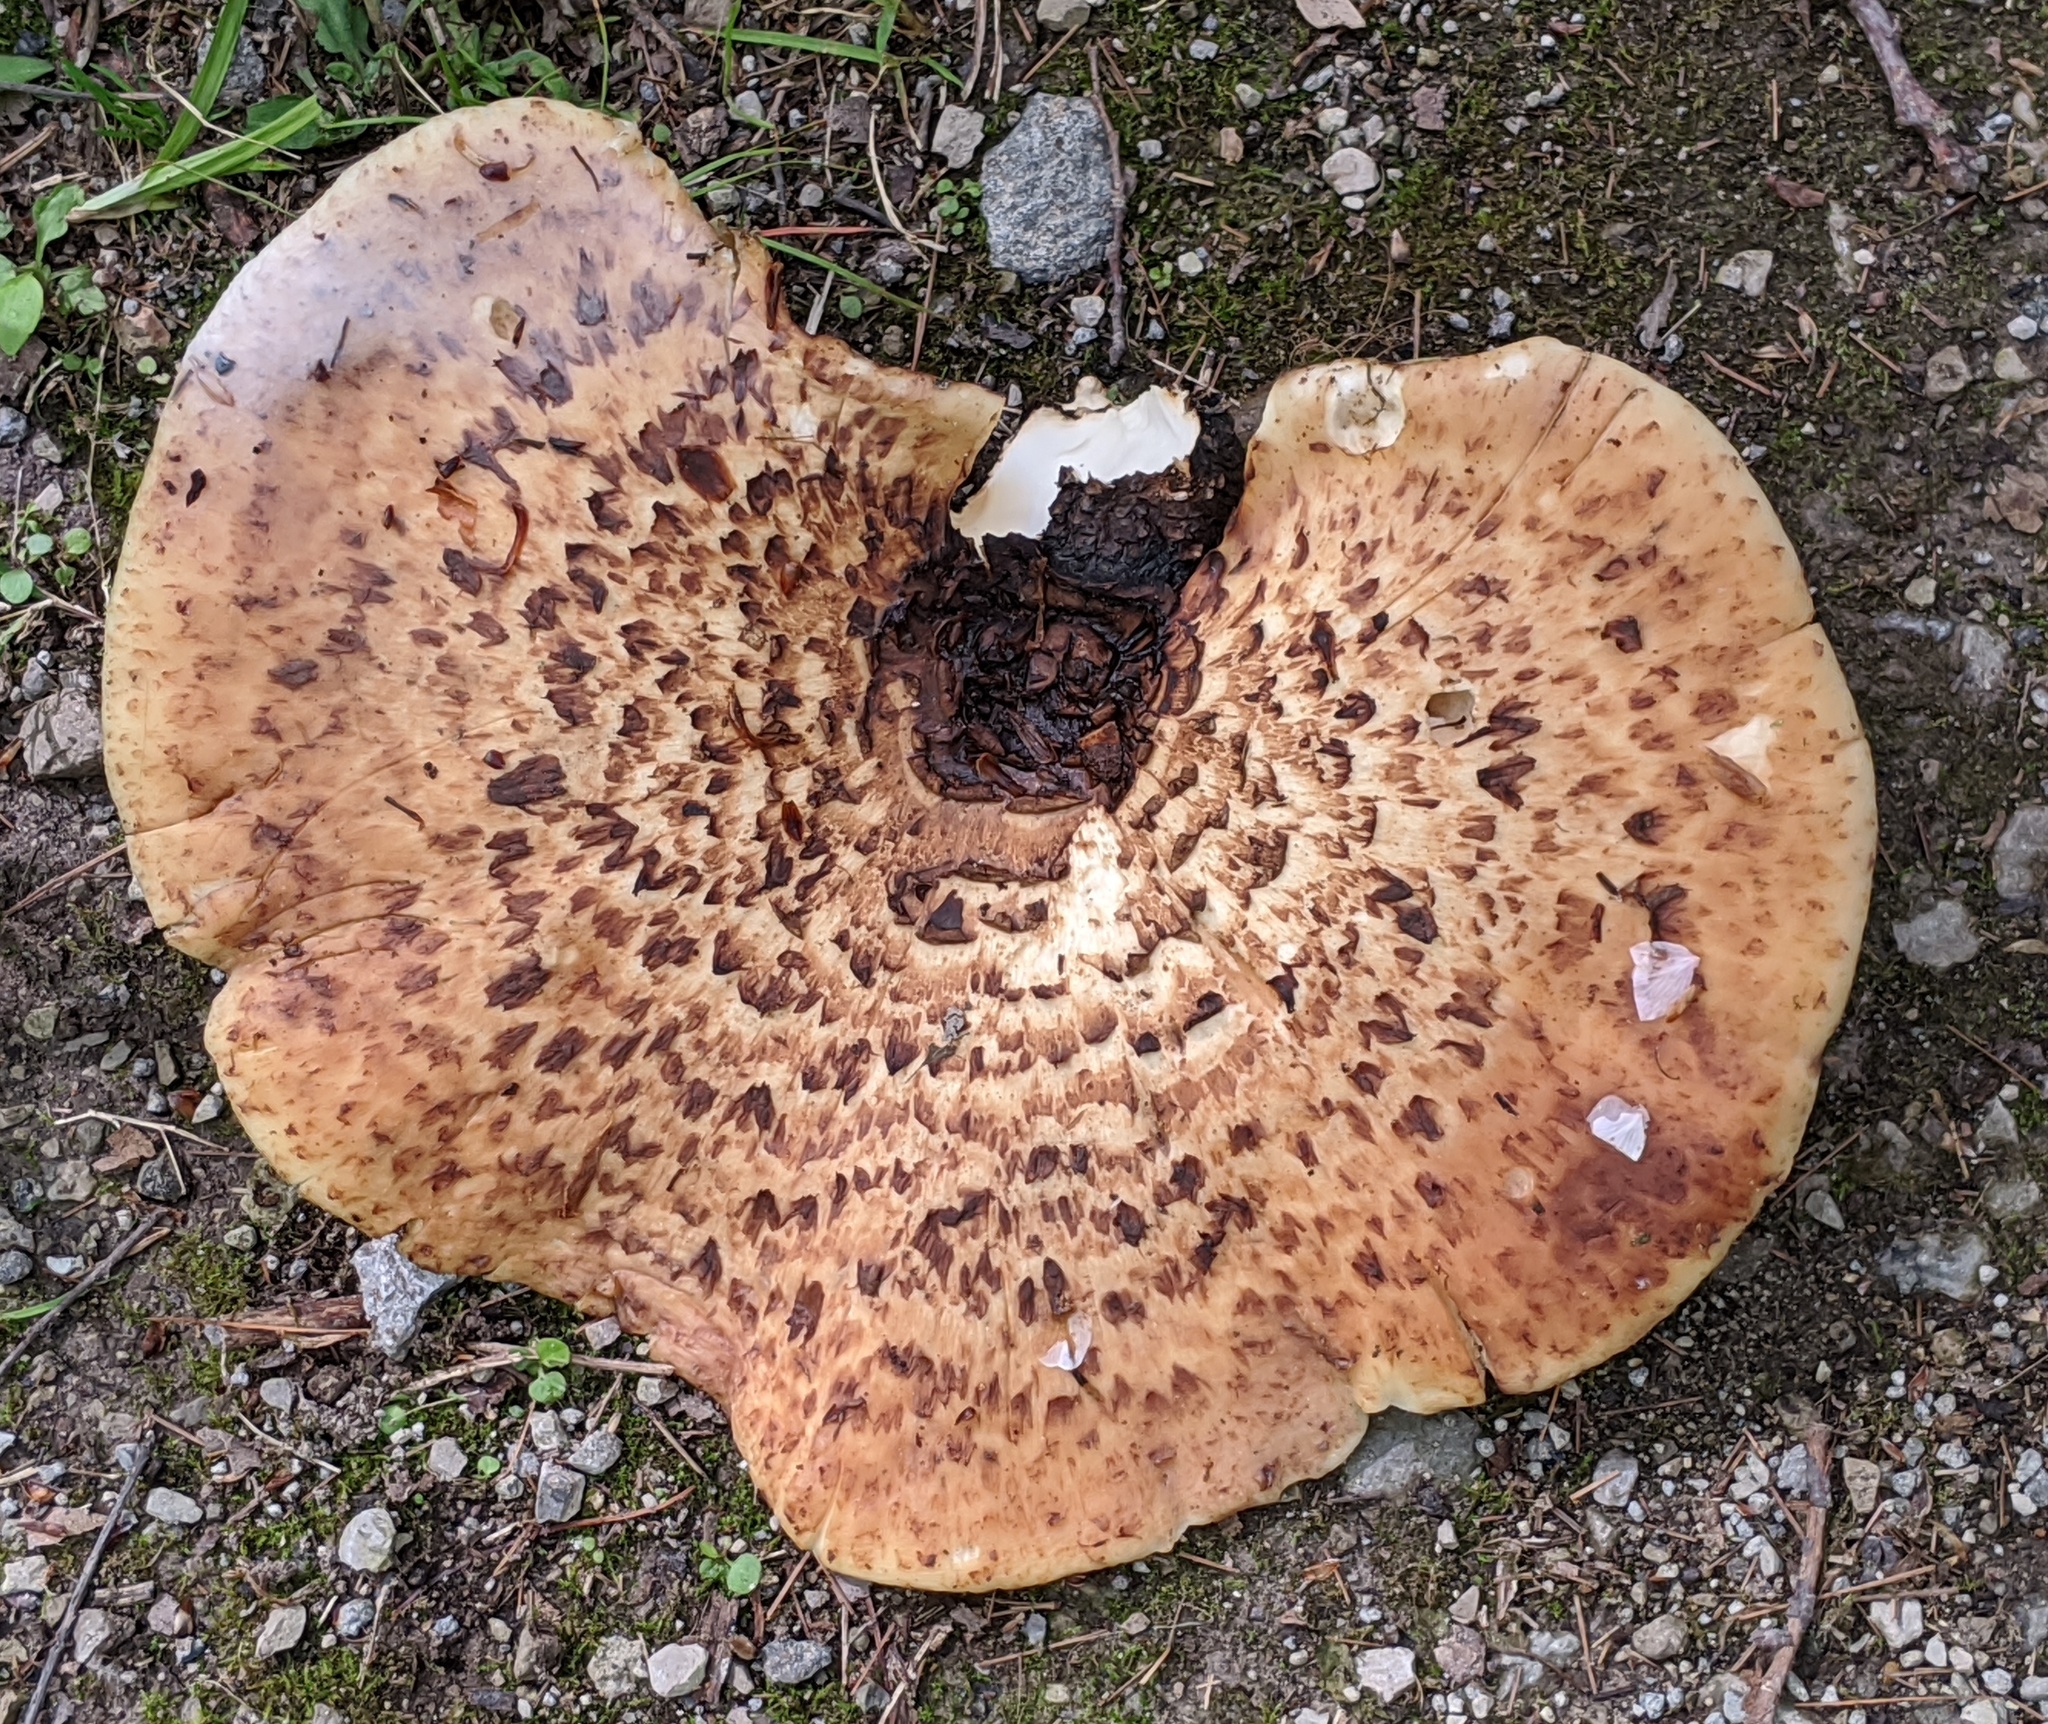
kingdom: Fungi
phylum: Basidiomycota
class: Agaricomycetes
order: Polyporales
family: Polyporaceae
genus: Cerioporus
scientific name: Cerioporus squamosus
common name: Dryad's saddle
